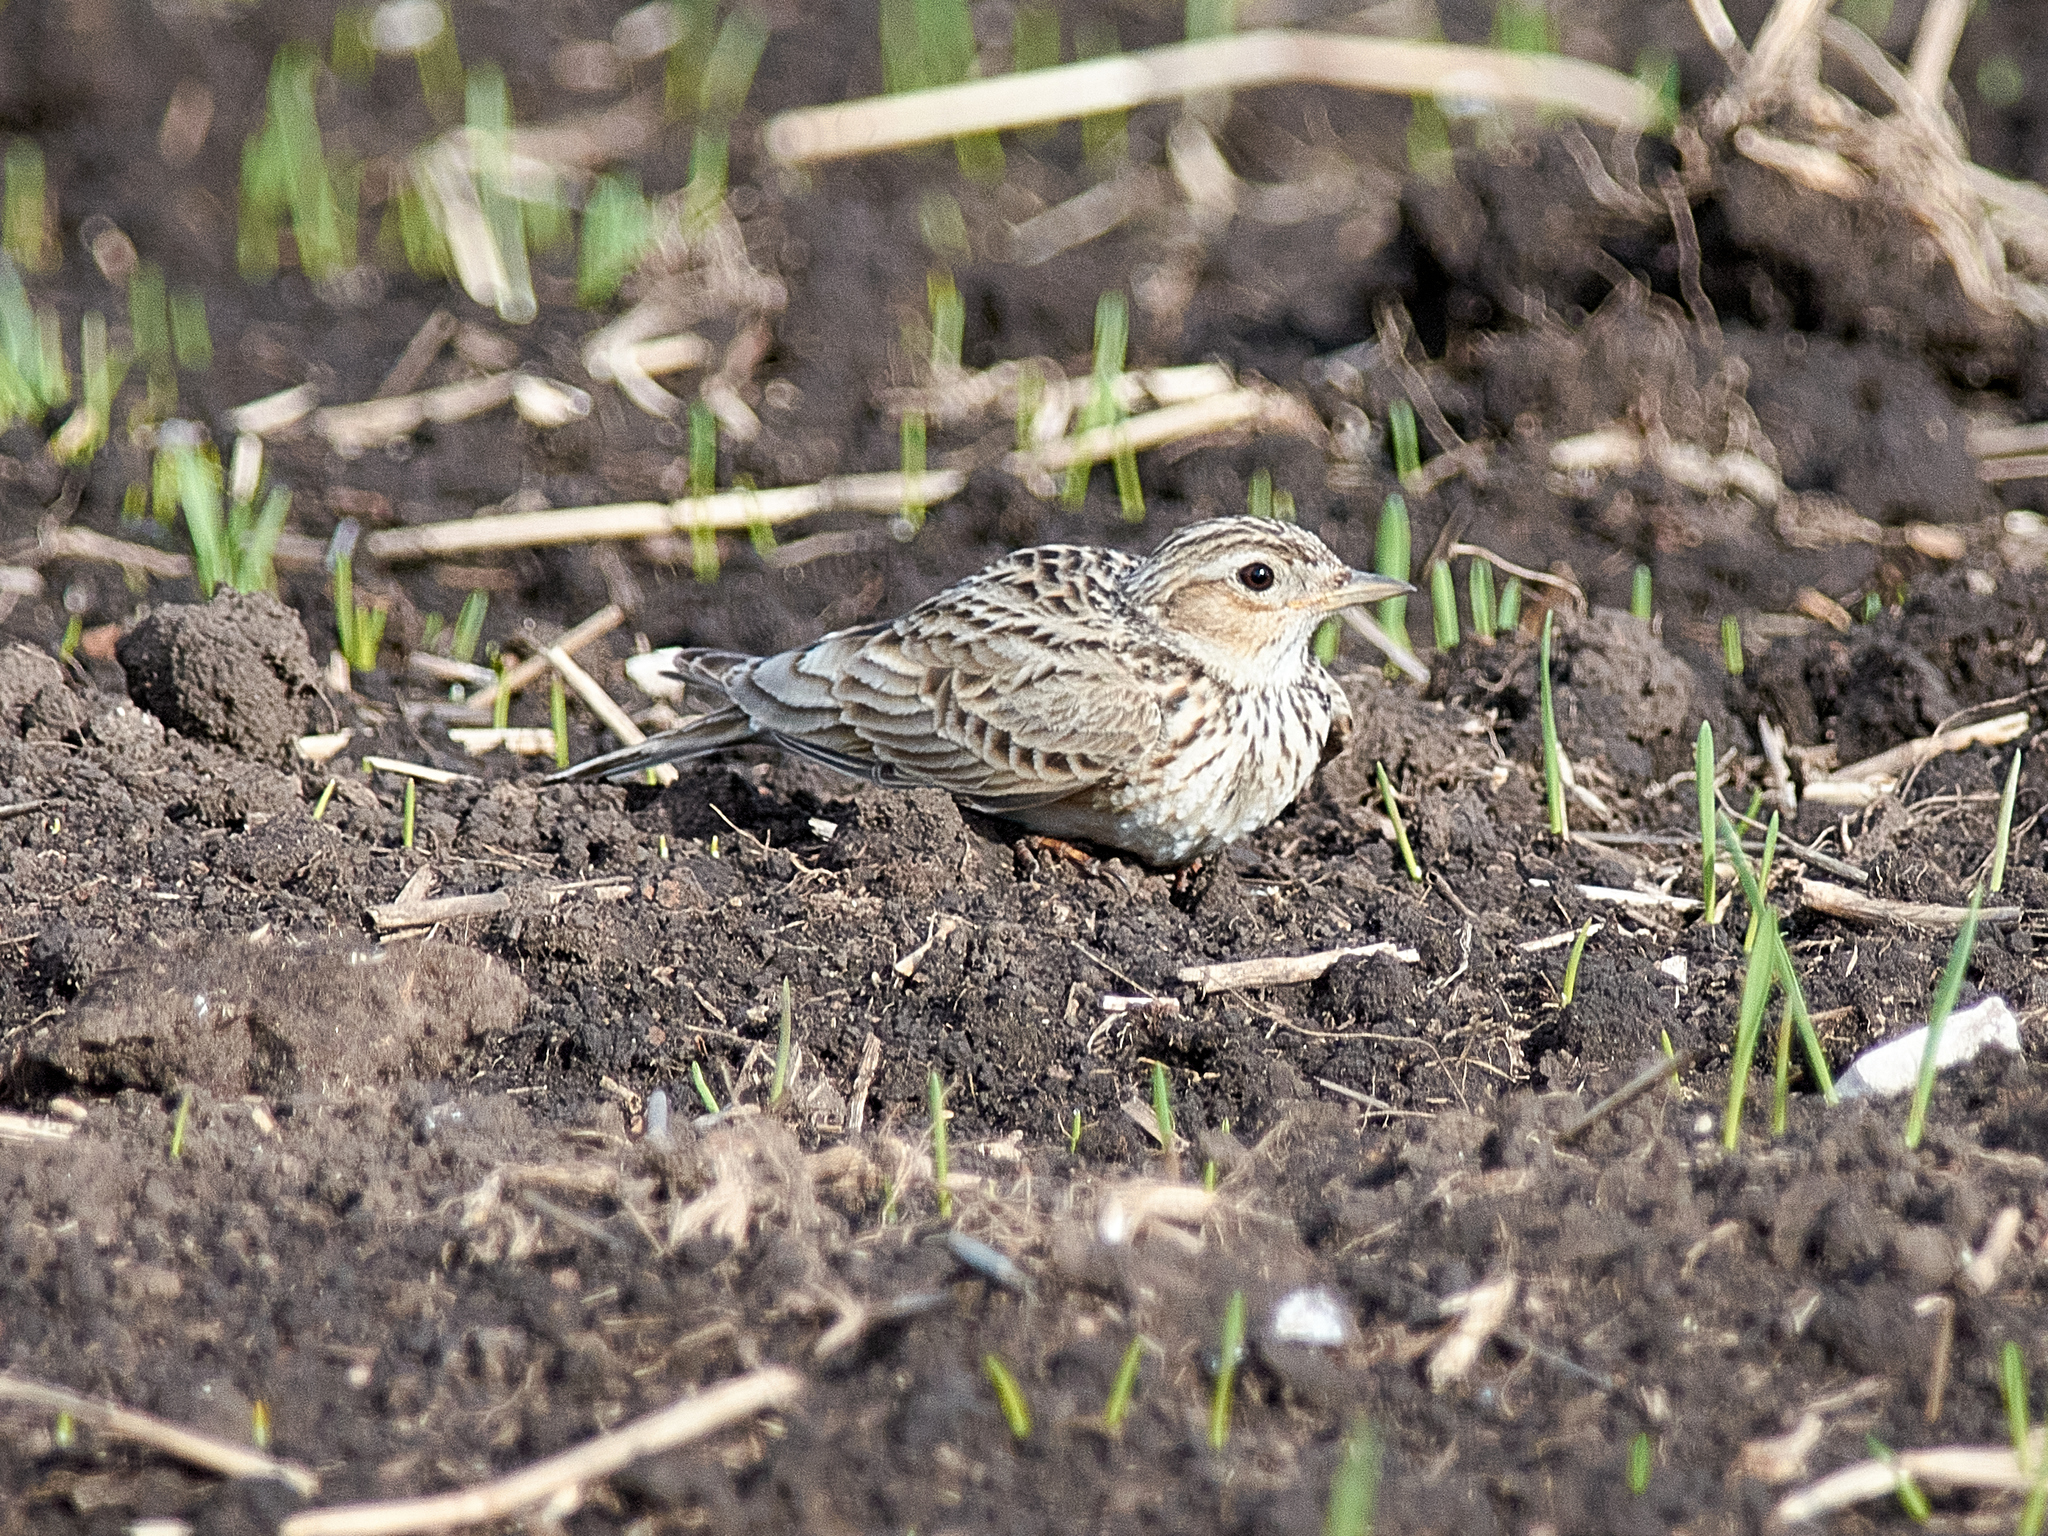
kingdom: Animalia
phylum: Chordata
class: Aves
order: Passeriformes
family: Alaudidae
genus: Alauda
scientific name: Alauda arvensis
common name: Eurasian skylark
